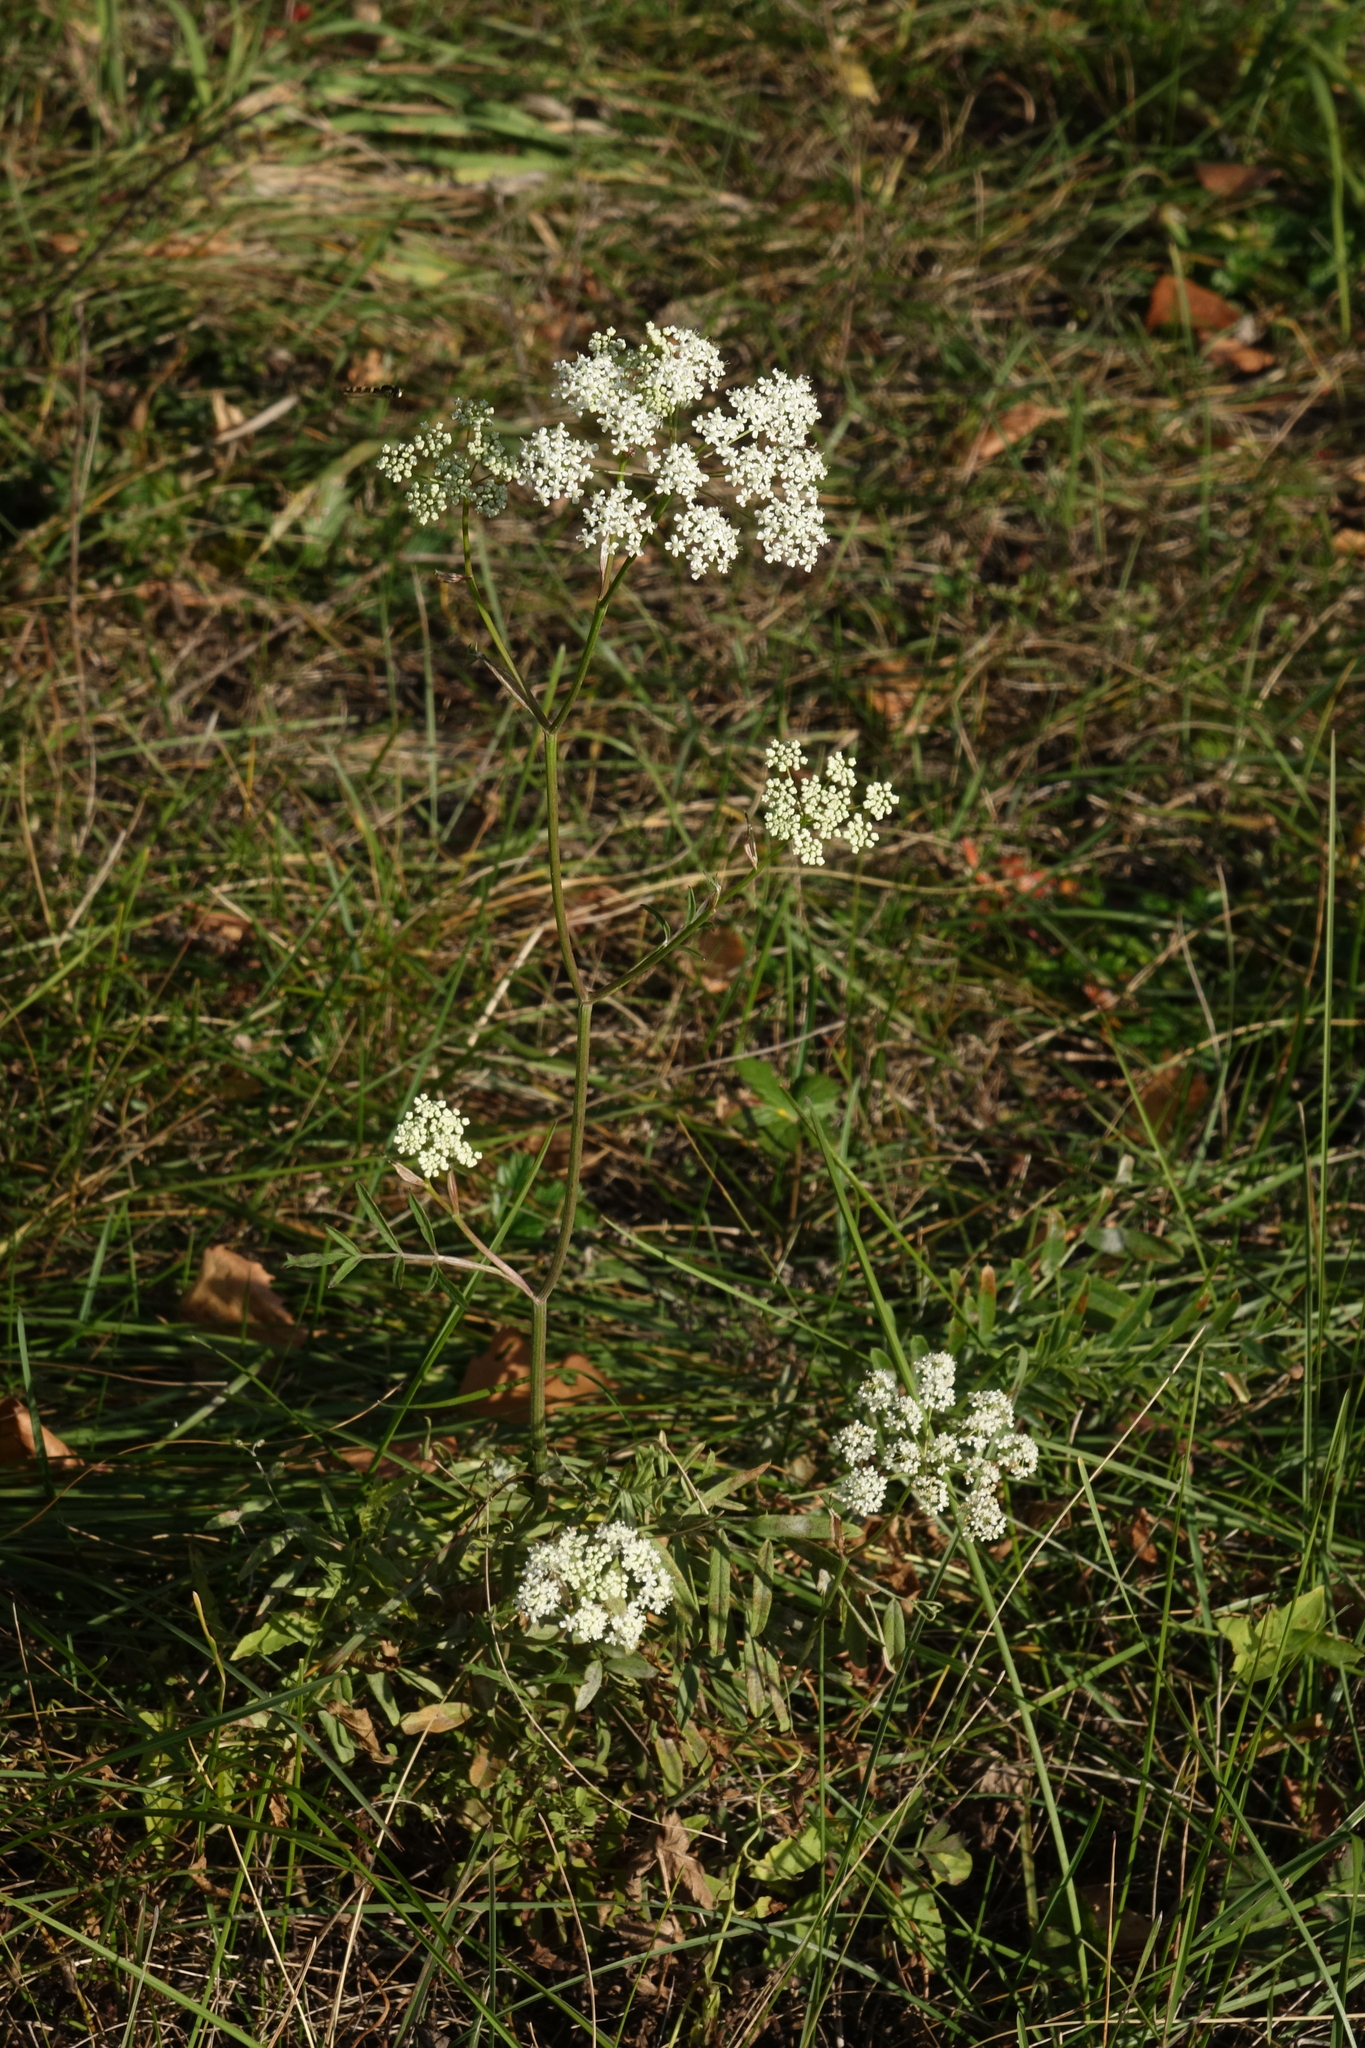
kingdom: Plantae
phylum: Tracheophyta
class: Magnoliopsida
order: Apiales
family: Apiaceae
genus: Pimpinella
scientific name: Pimpinella saxifraga
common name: Burnet-saxifrage
